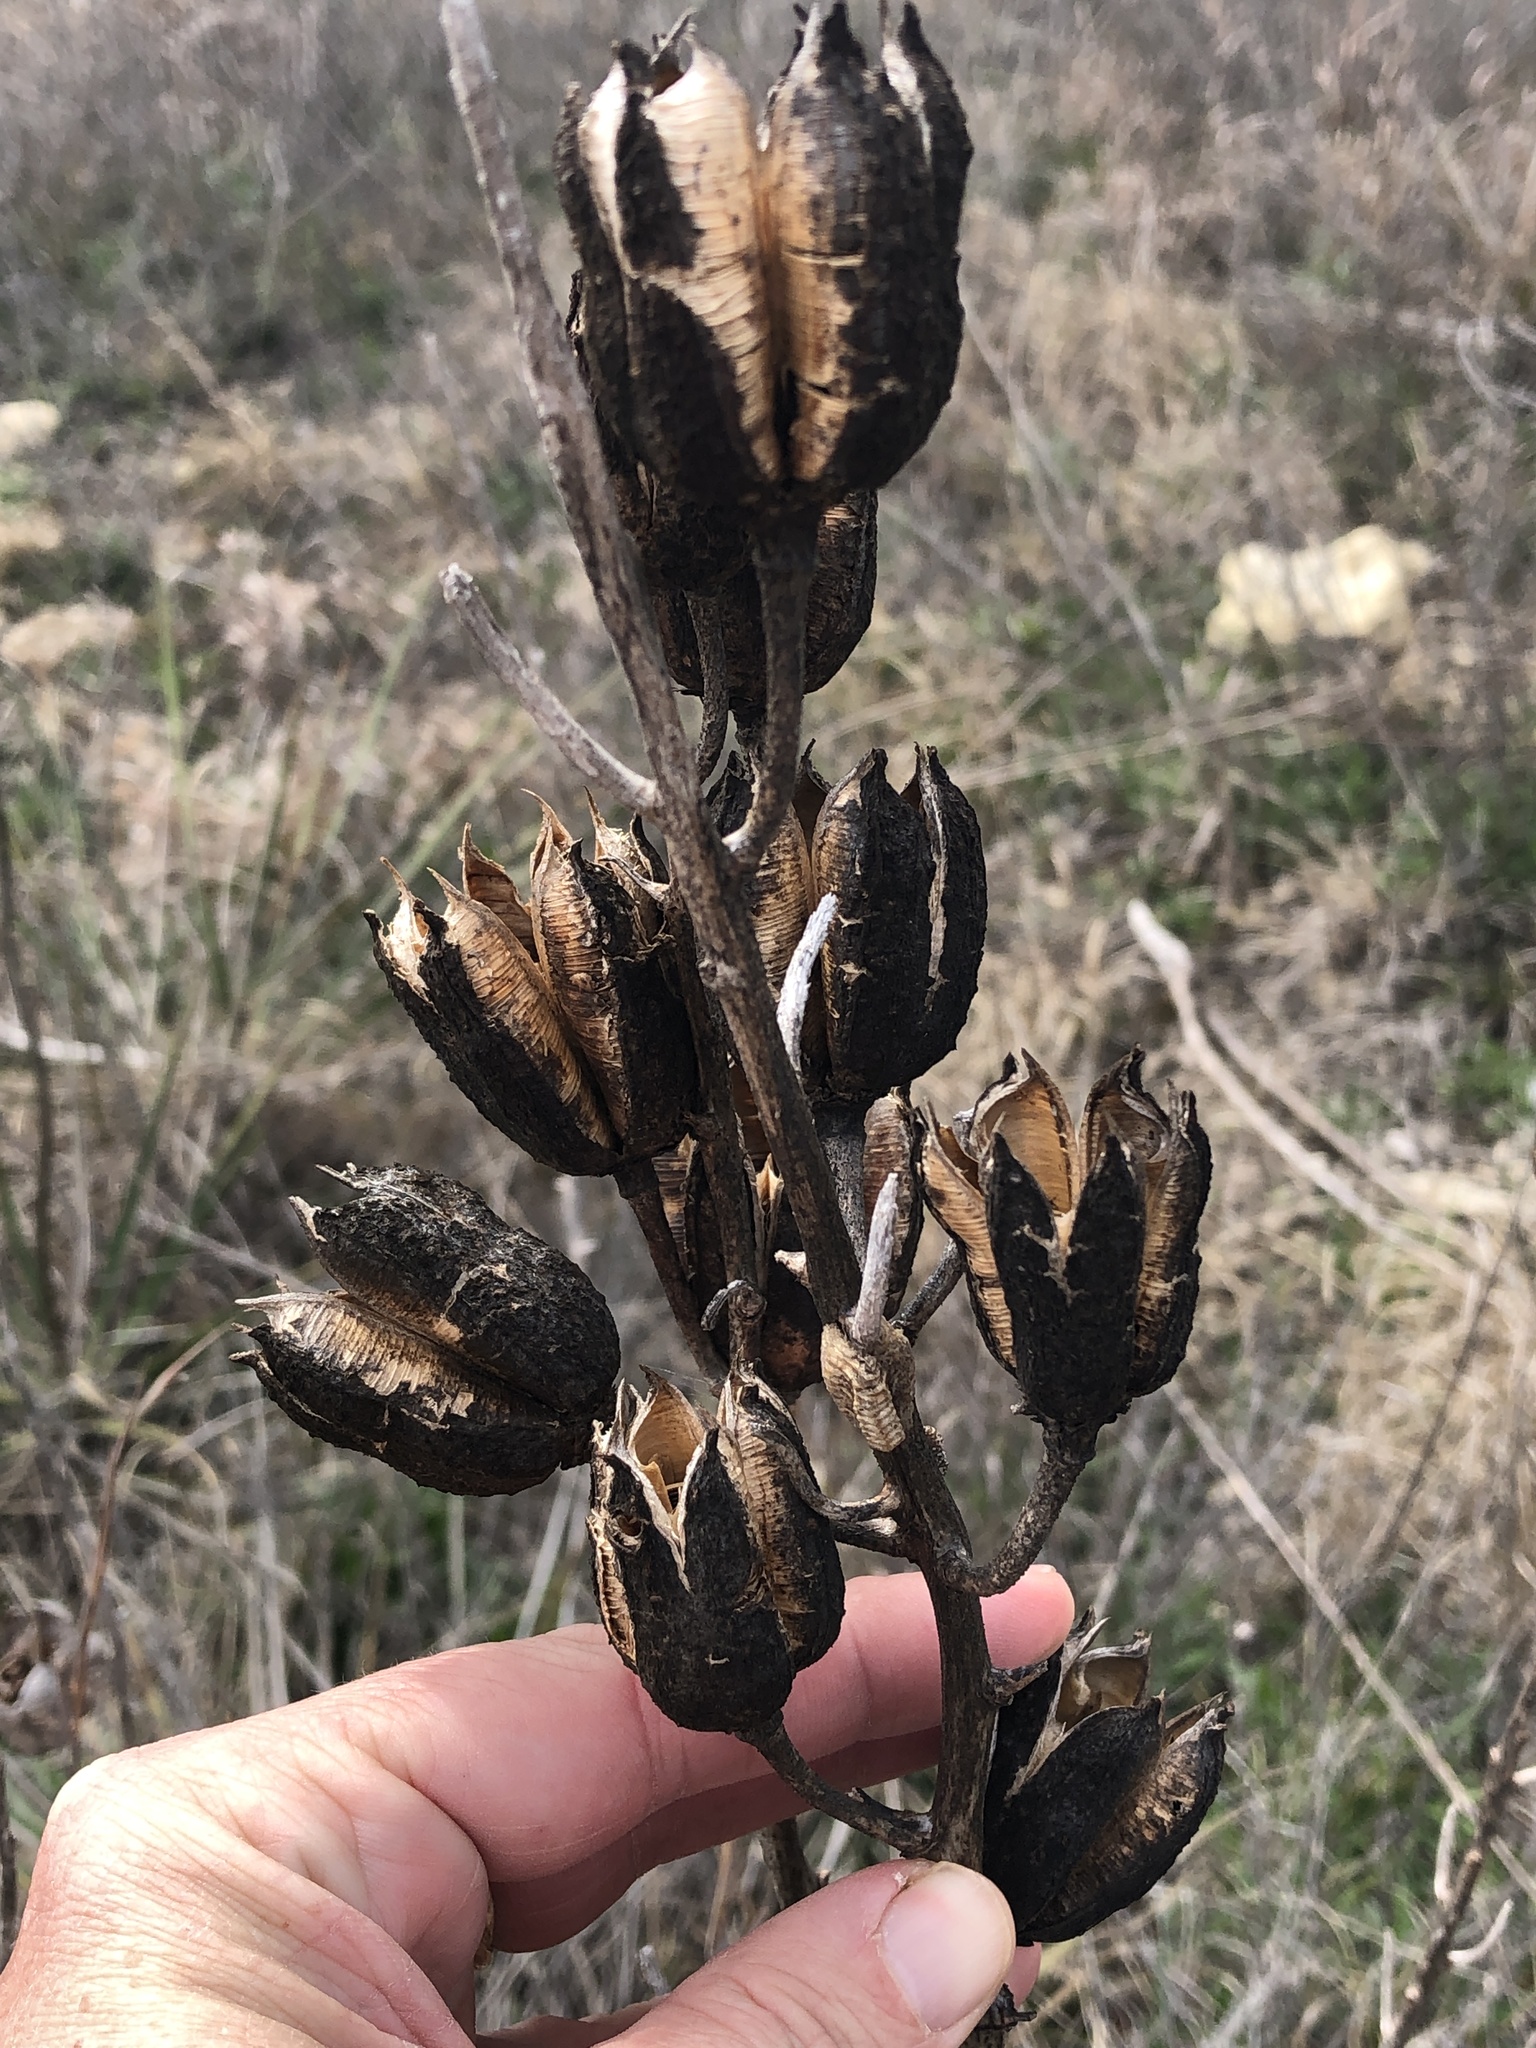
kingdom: Plantae
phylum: Tracheophyta
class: Liliopsida
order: Asparagales
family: Asparagaceae
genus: Yucca
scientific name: Yucca arkansana
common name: Arkansas yucca
